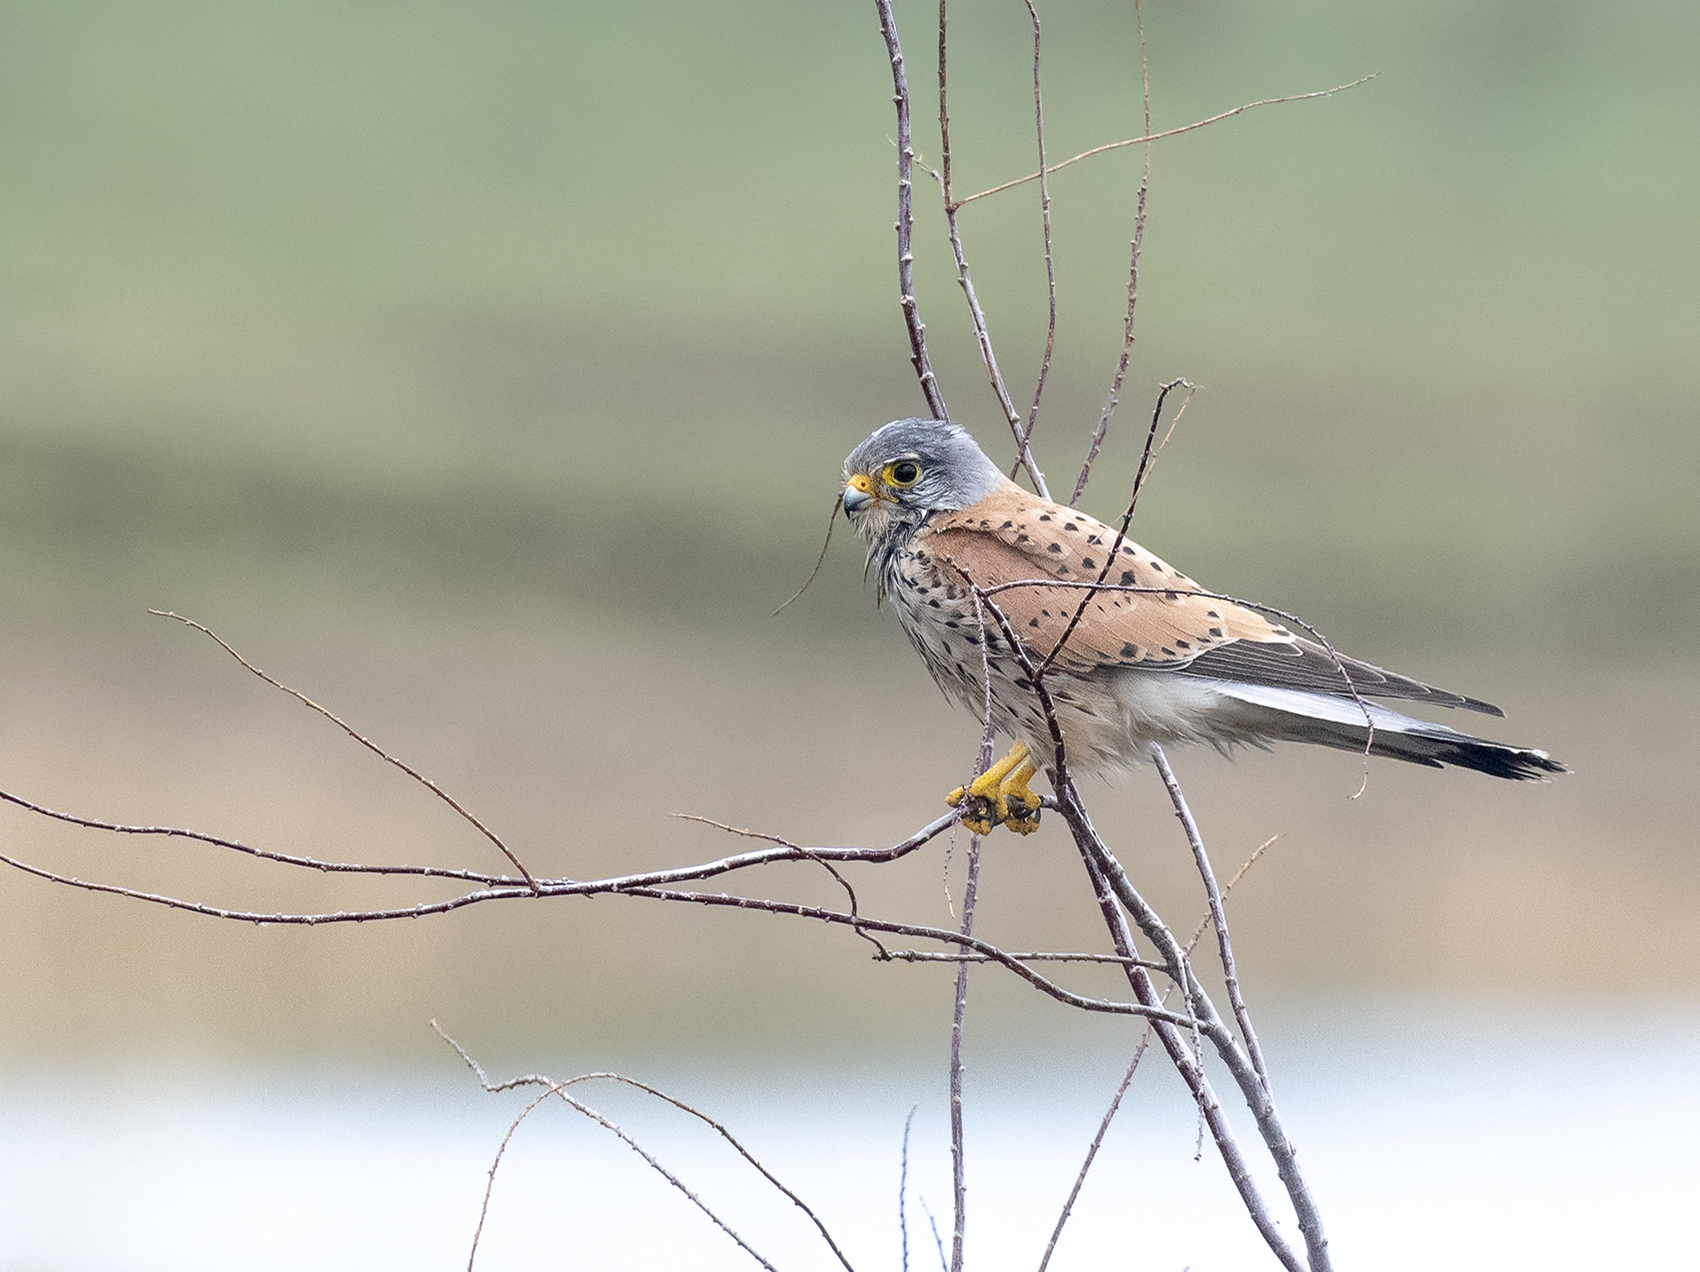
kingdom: Animalia
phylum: Chordata
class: Aves
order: Falconiformes
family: Falconidae
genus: Falco
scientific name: Falco tinnunculus
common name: Common kestrel
